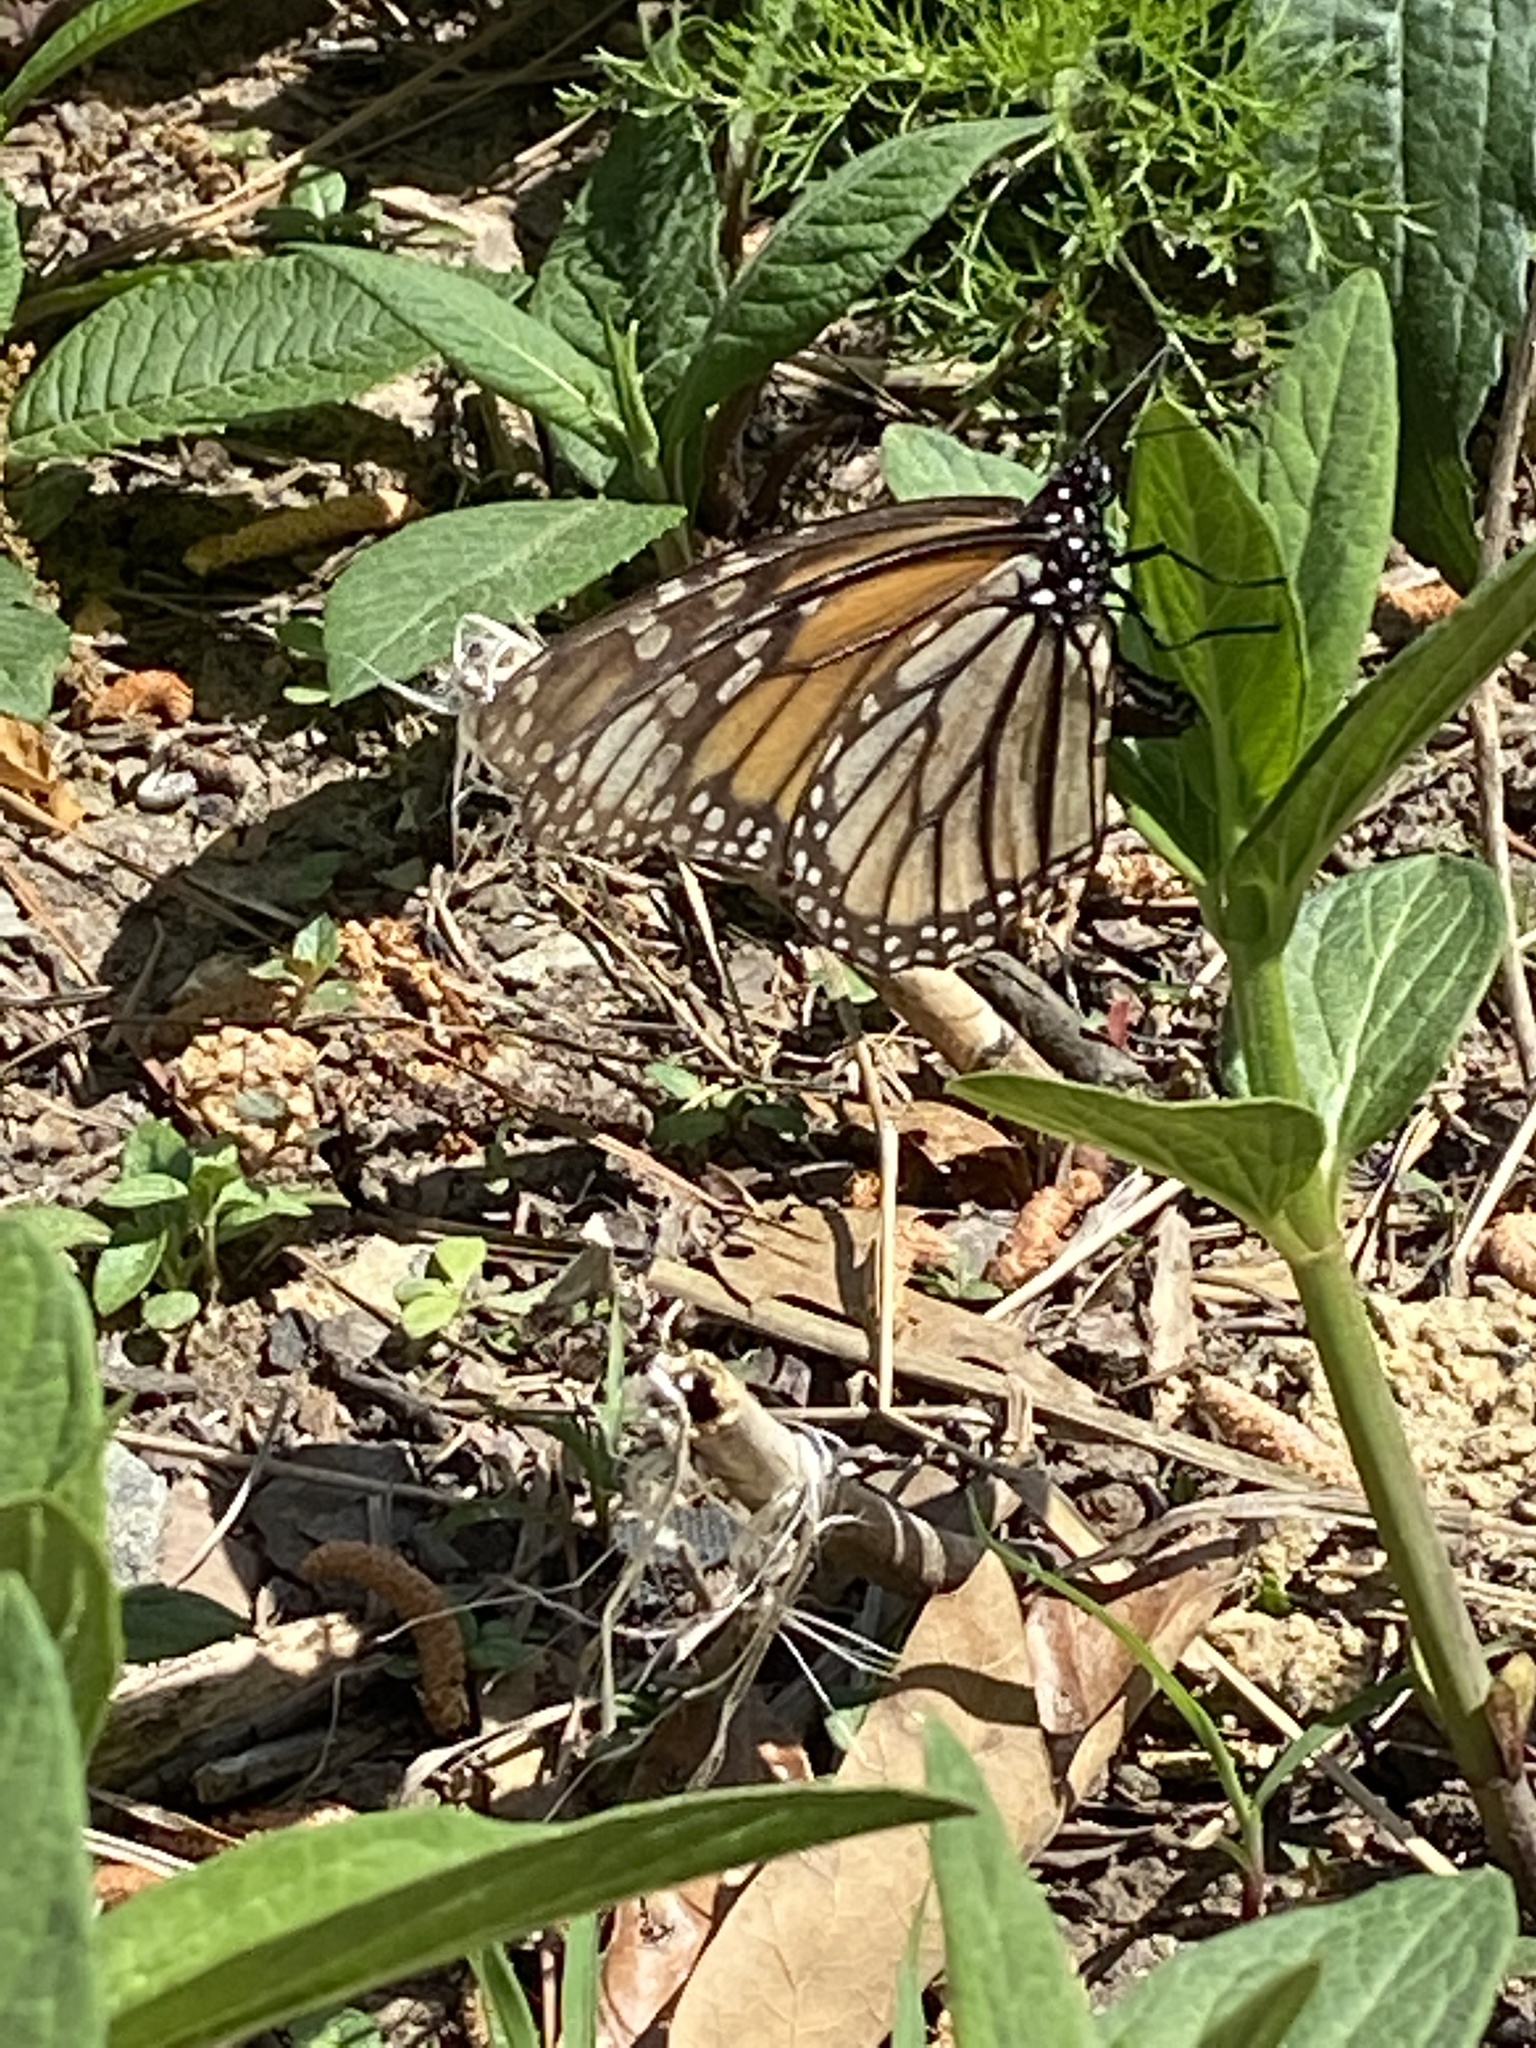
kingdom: Animalia
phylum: Arthropoda
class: Insecta
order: Lepidoptera
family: Nymphalidae
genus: Danaus
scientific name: Danaus plexippus
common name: Monarch
